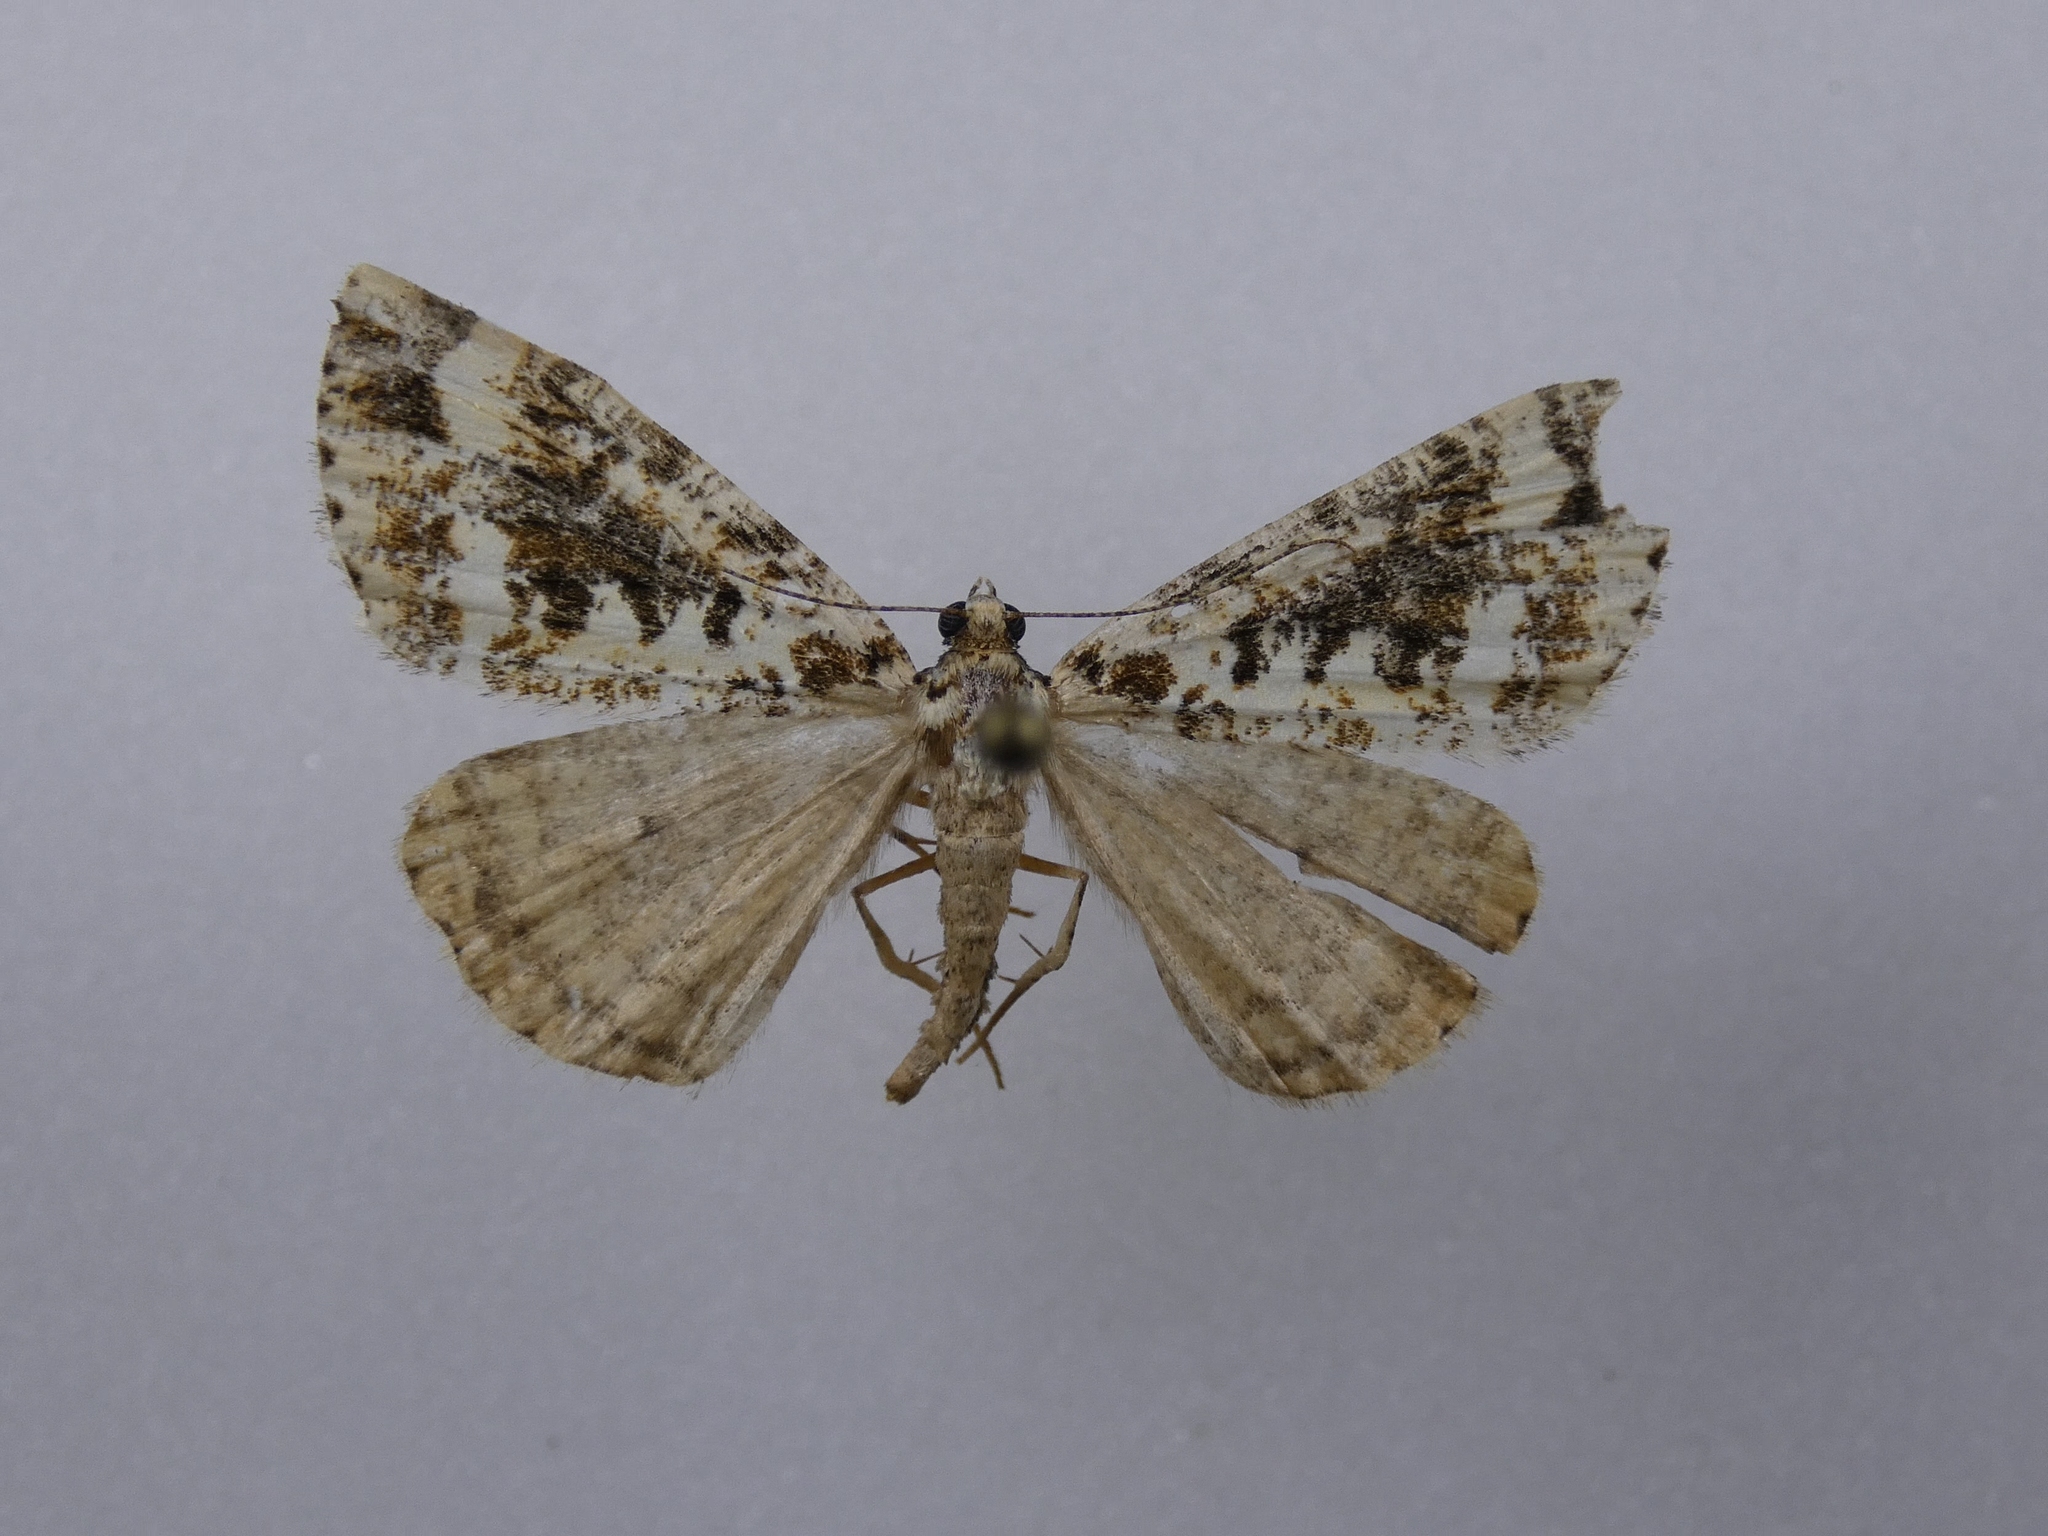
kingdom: Animalia
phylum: Arthropoda
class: Insecta
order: Lepidoptera
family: Geometridae
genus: Pseudocoremia
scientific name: Pseudocoremia leucelaea
